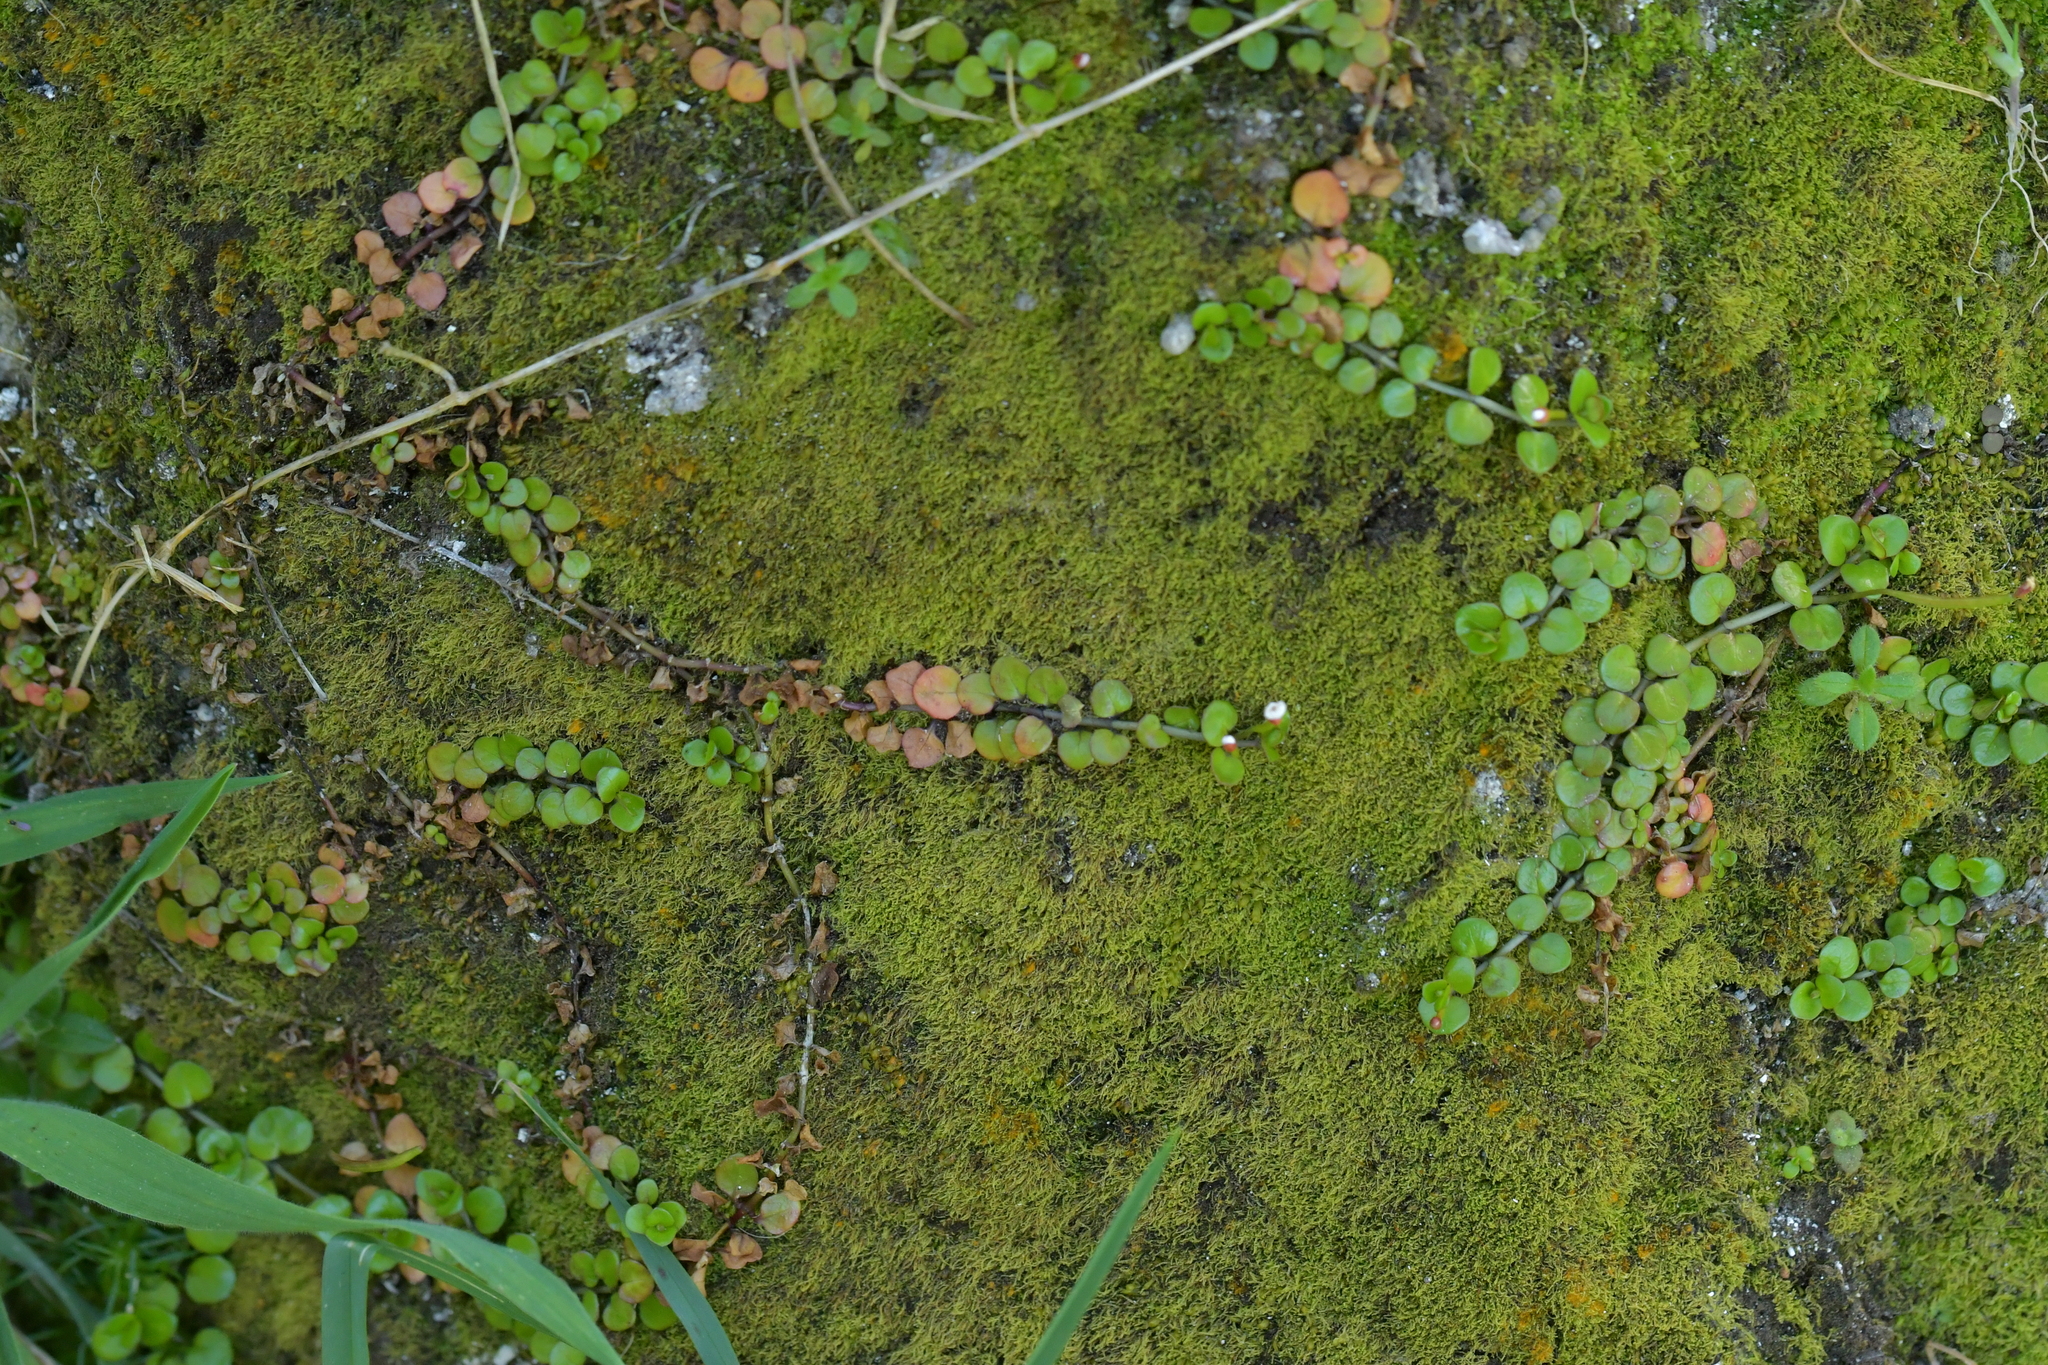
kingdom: Plantae
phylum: Tracheophyta
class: Magnoliopsida
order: Myrtales
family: Onagraceae
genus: Epilobium
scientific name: Epilobium nummularifolium
